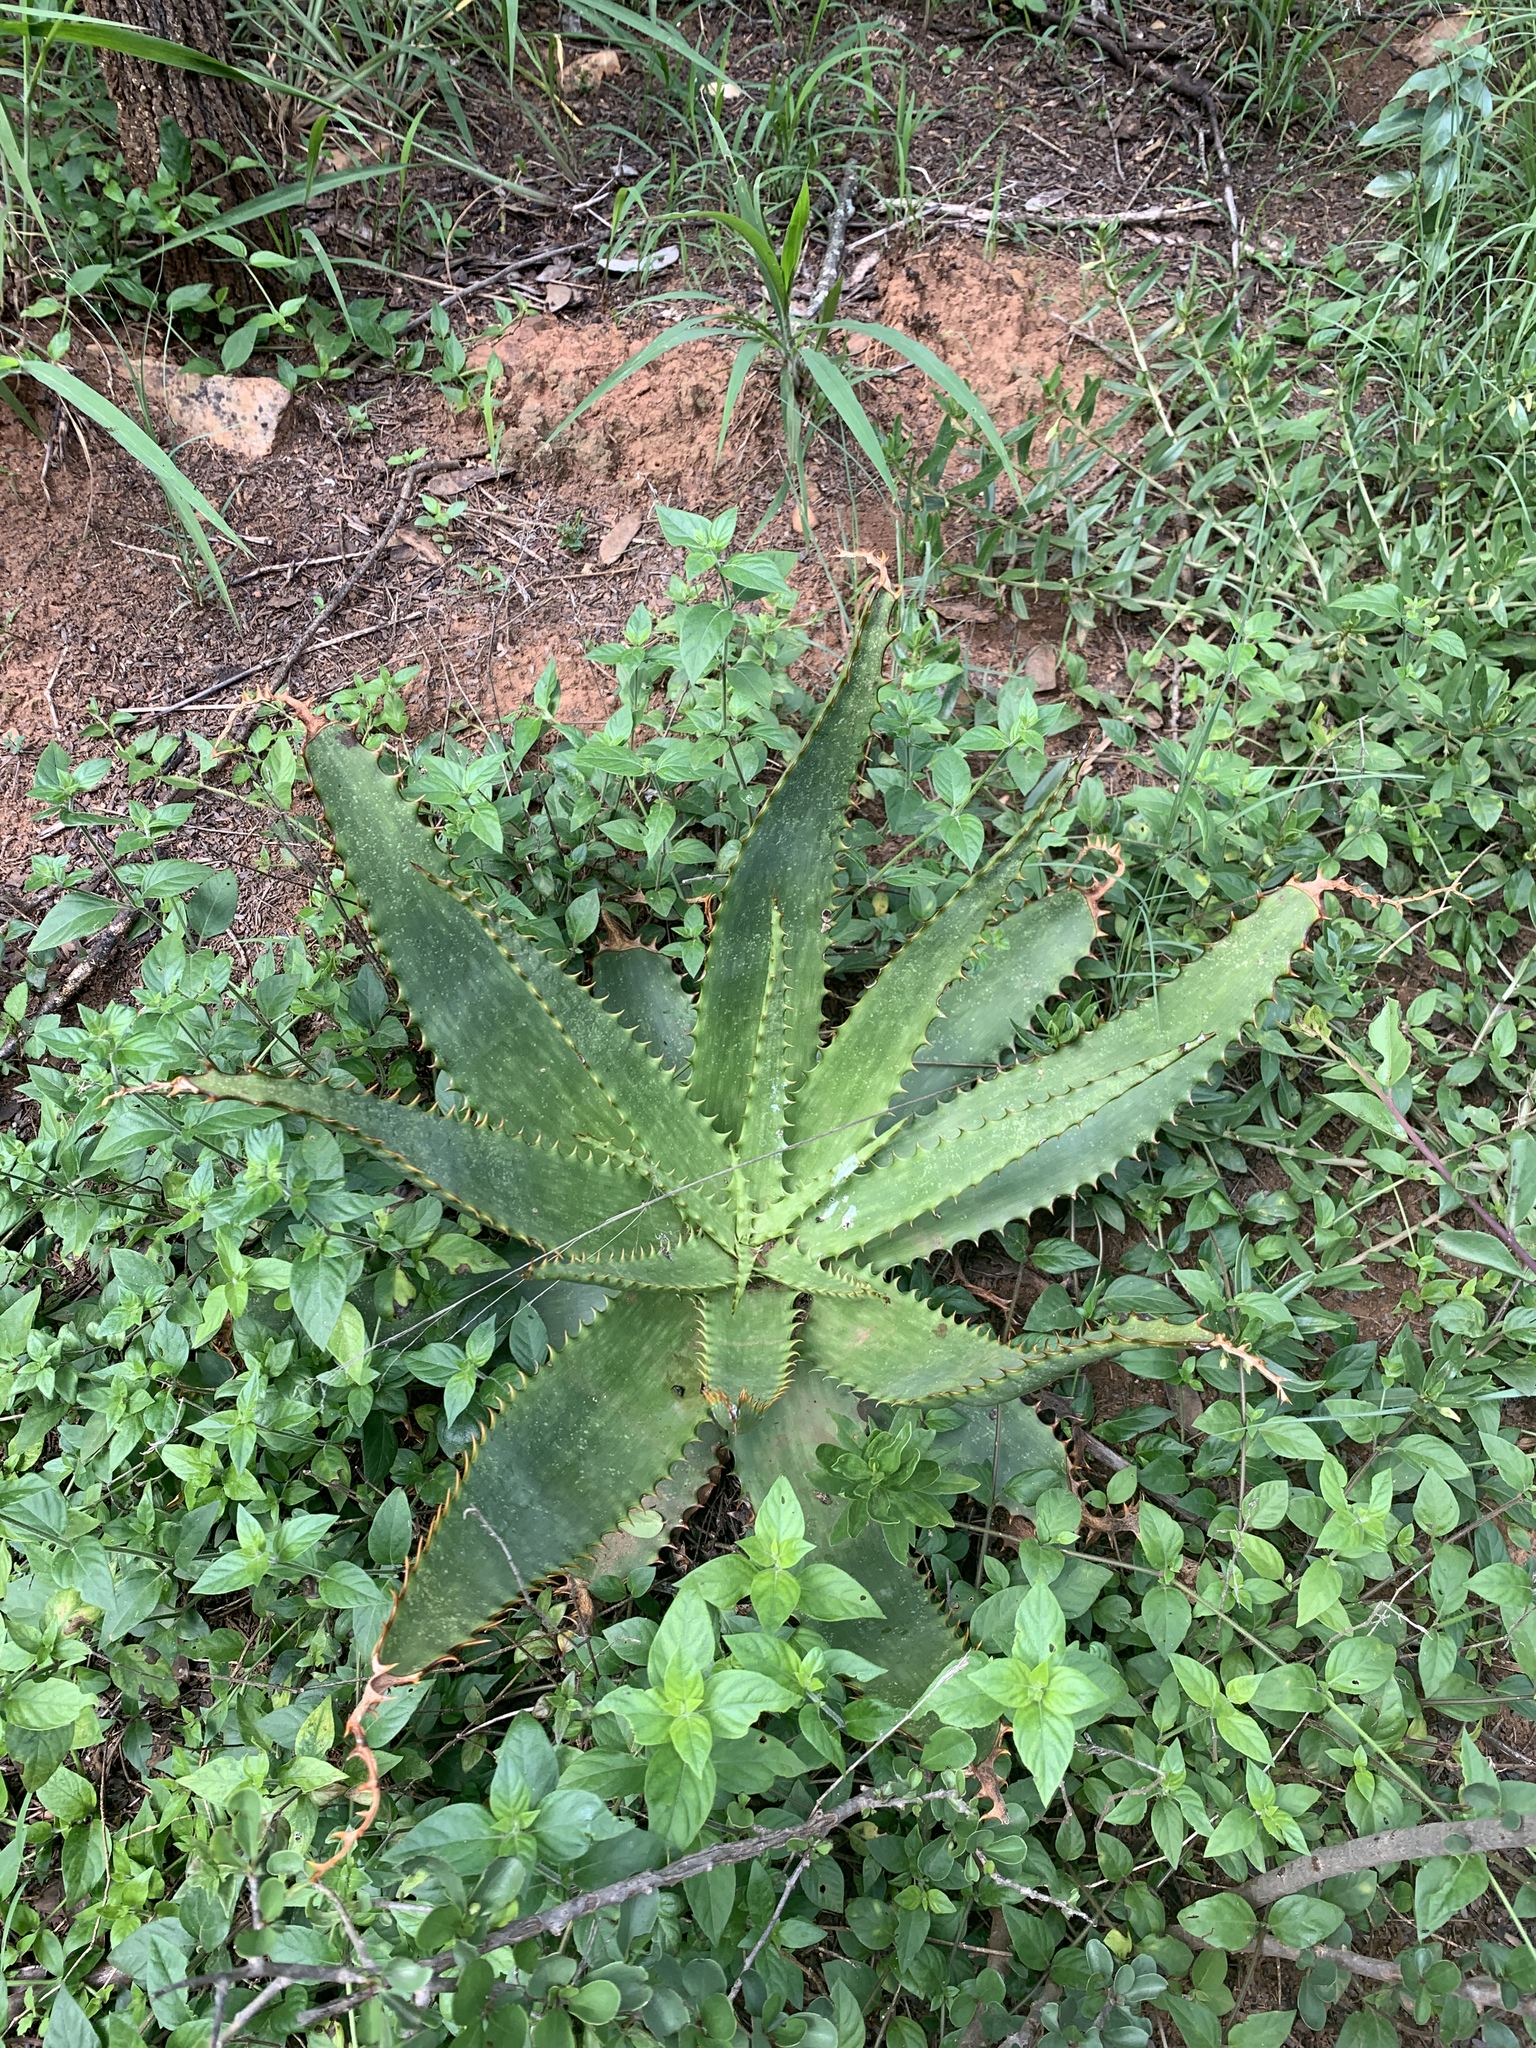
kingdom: Plantae
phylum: Tracheophyta
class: Liliopsida
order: Asparagales
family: Asphodelaceae
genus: Aloe
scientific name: Aloe davyana
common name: Spotted aloe
